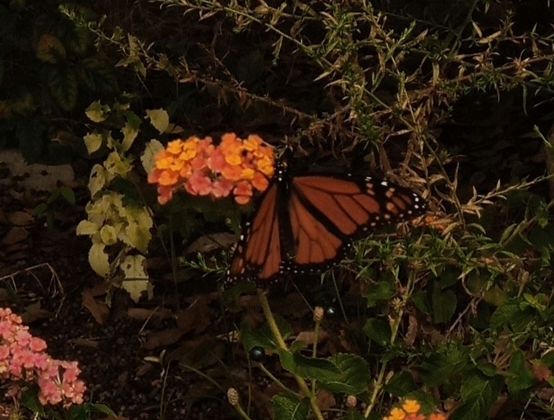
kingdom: Animalia
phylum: Arthropoda
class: Insecta
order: Lepidoptera
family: Nymphalidae
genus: Danaus
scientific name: Danaus plexippus
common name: Monarch
